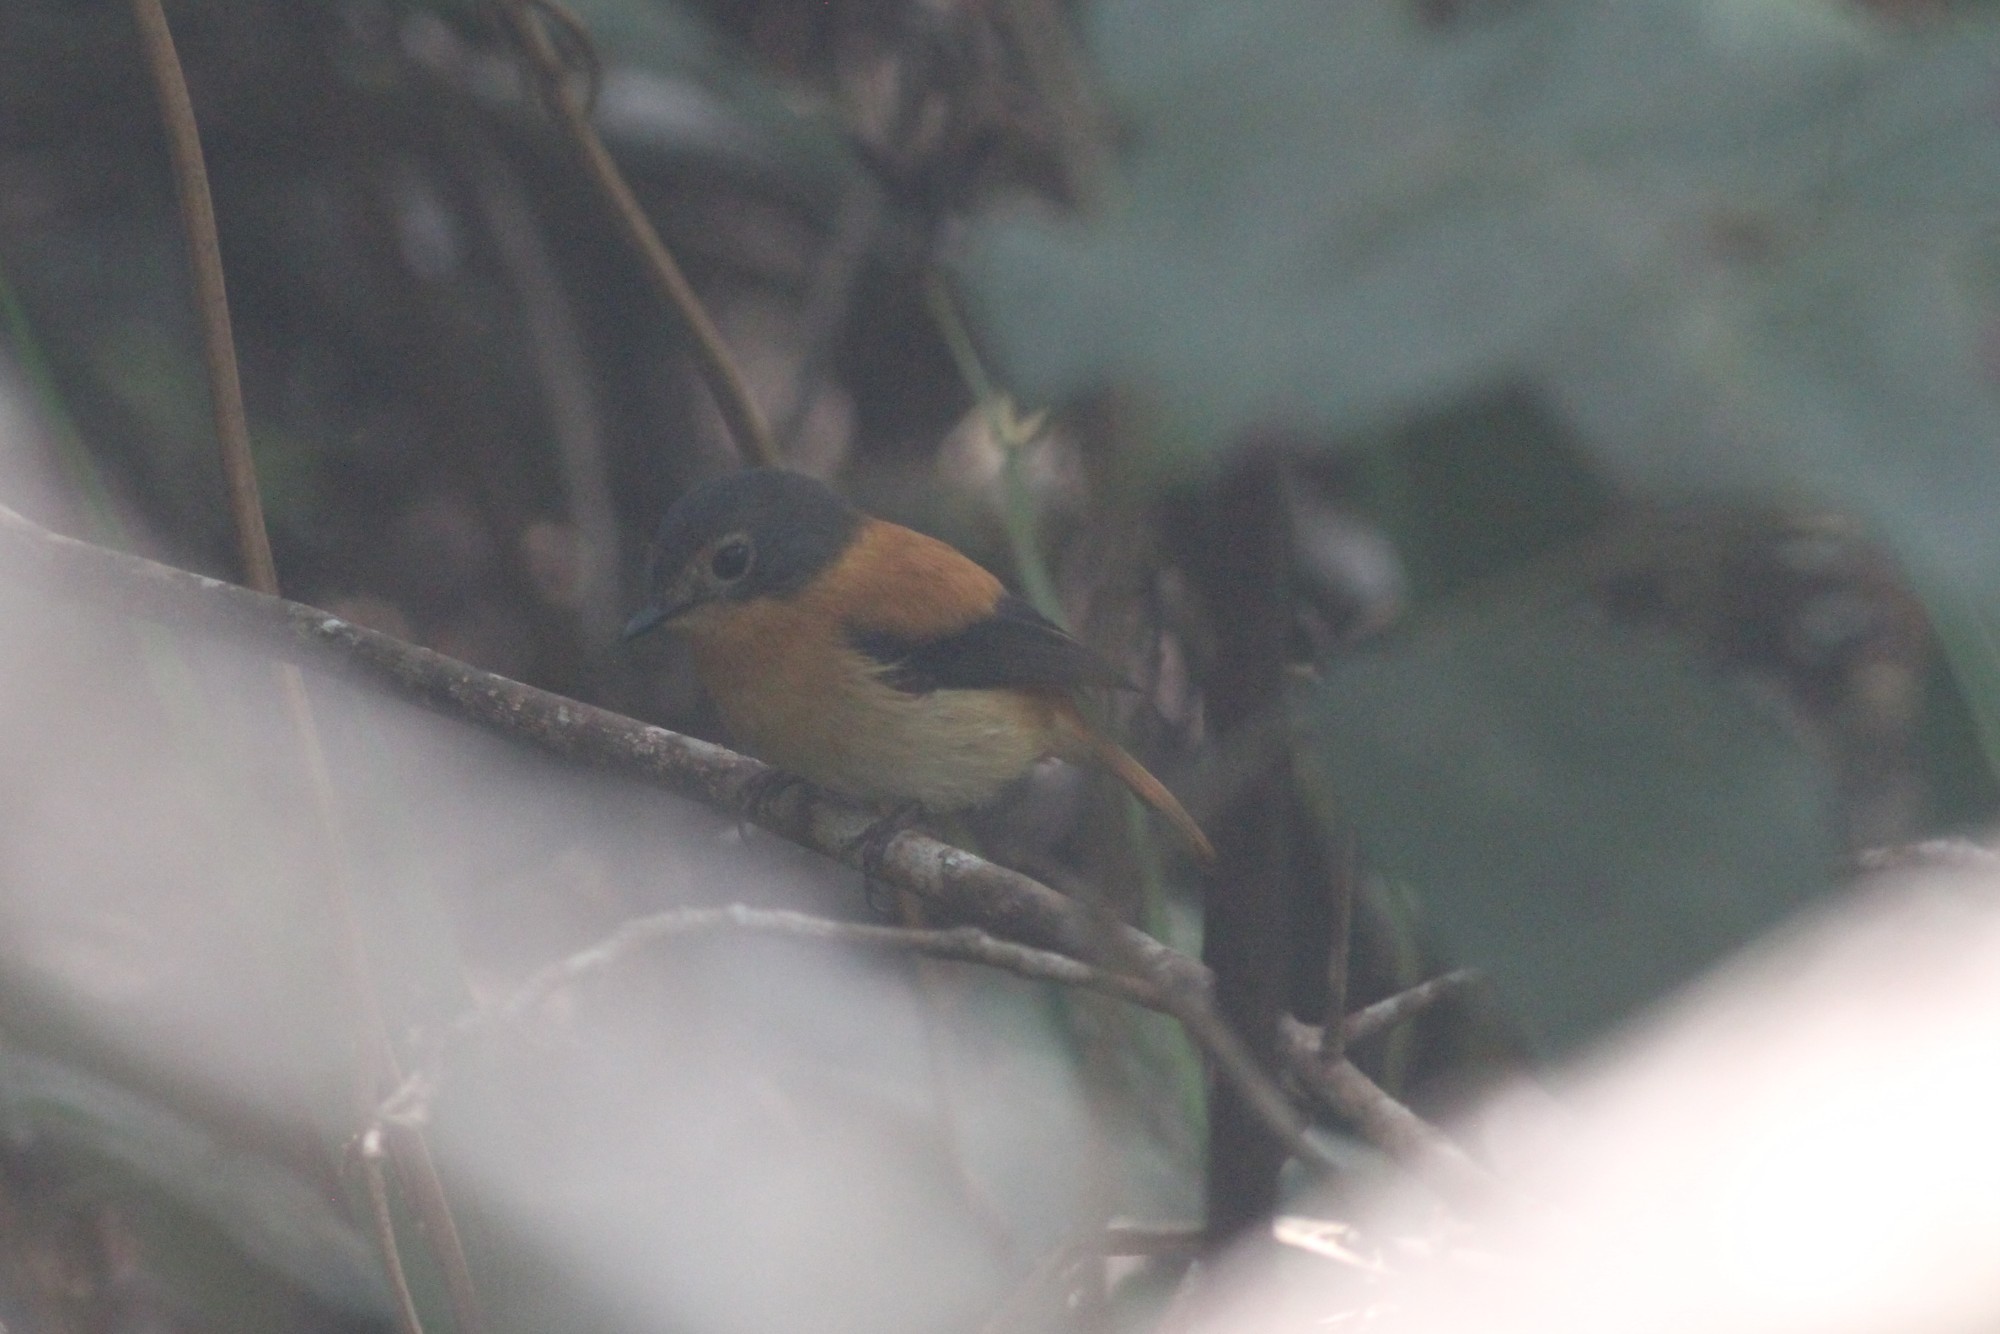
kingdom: Animalia
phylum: Chordata
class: Aves
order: Passeriformes
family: Muscicapidae
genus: Ficedula
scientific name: Ficedula nigrorufa
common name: Black-and-orange flycatcher
